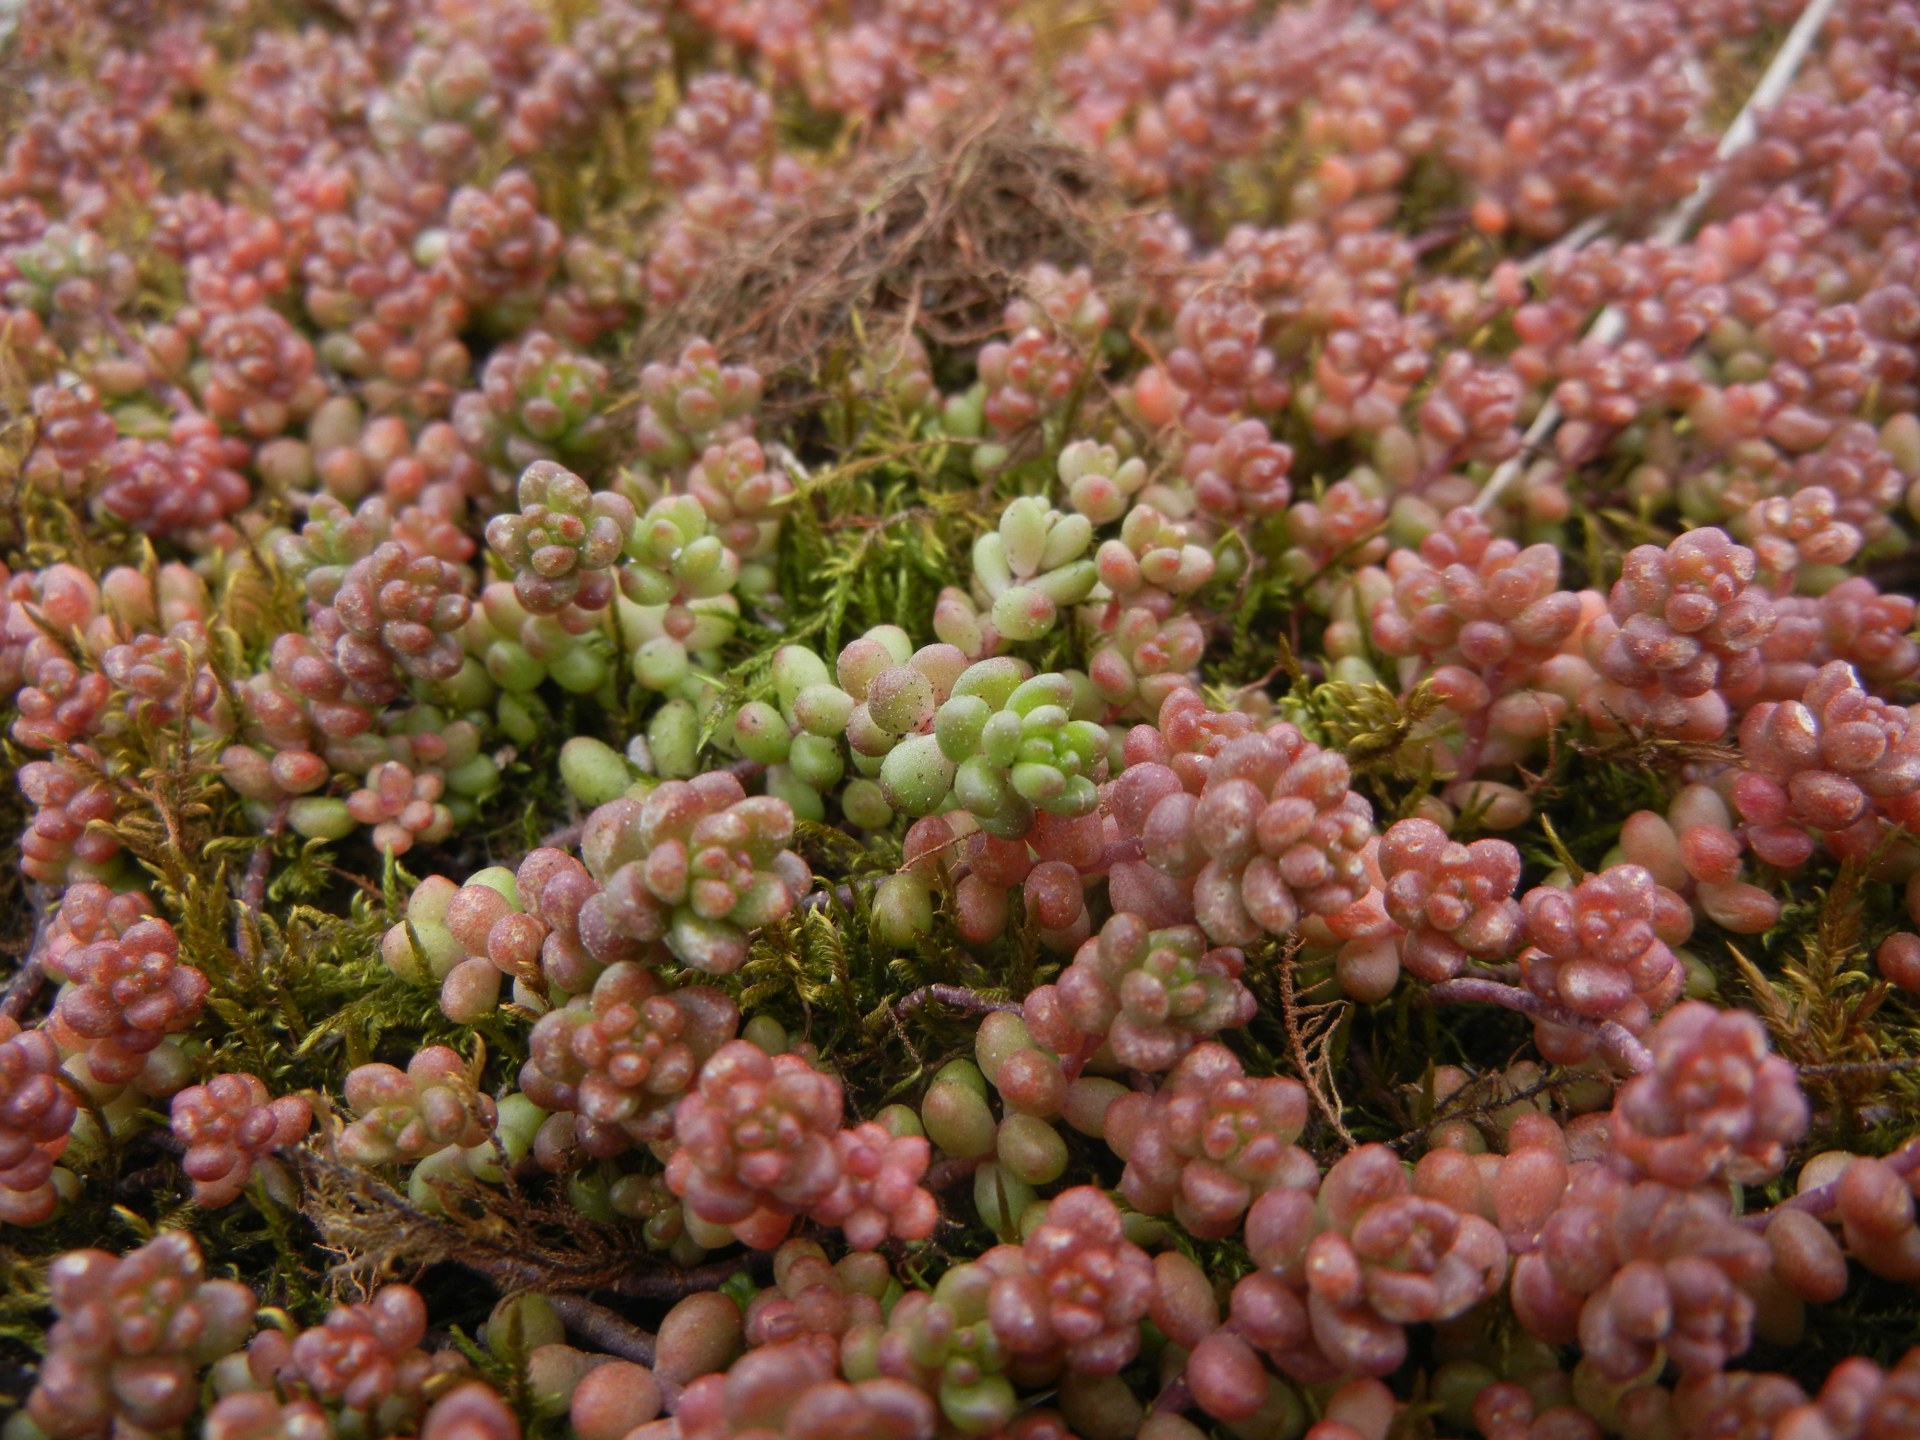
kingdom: Plantae
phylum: Tracheophyta
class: Magnoliopsida
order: Saxifragales
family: Crassulaceae
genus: Sedum
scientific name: Sedum album
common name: White stonecrop
